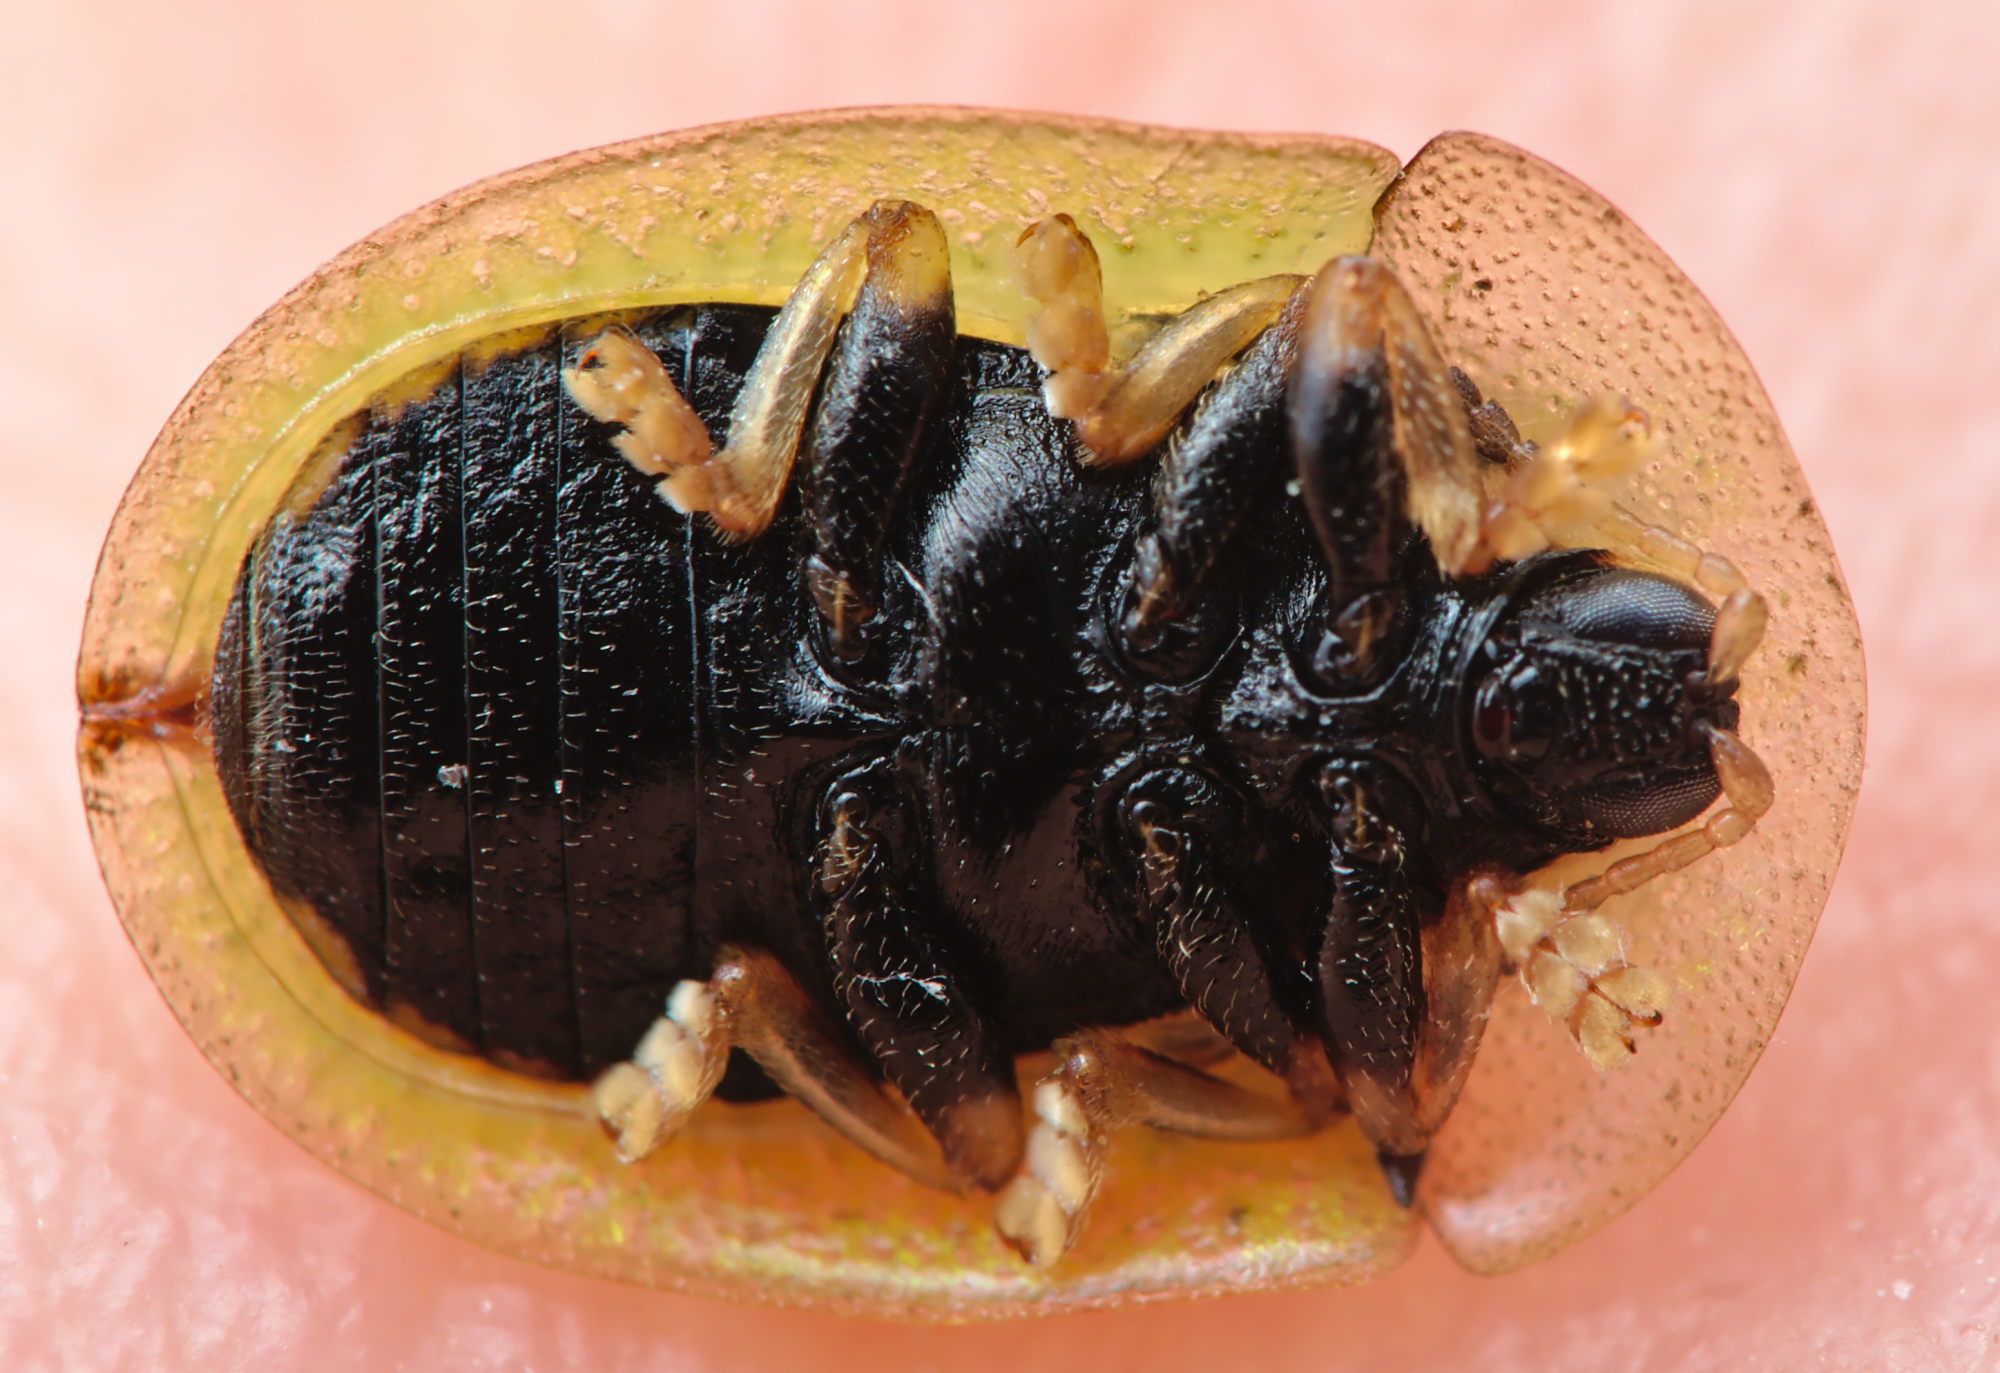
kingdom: Animalia
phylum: Arthropoda
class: Insecta
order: Coleoptera
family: Chrysomelidae
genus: Cassida
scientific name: Cassida vibex
